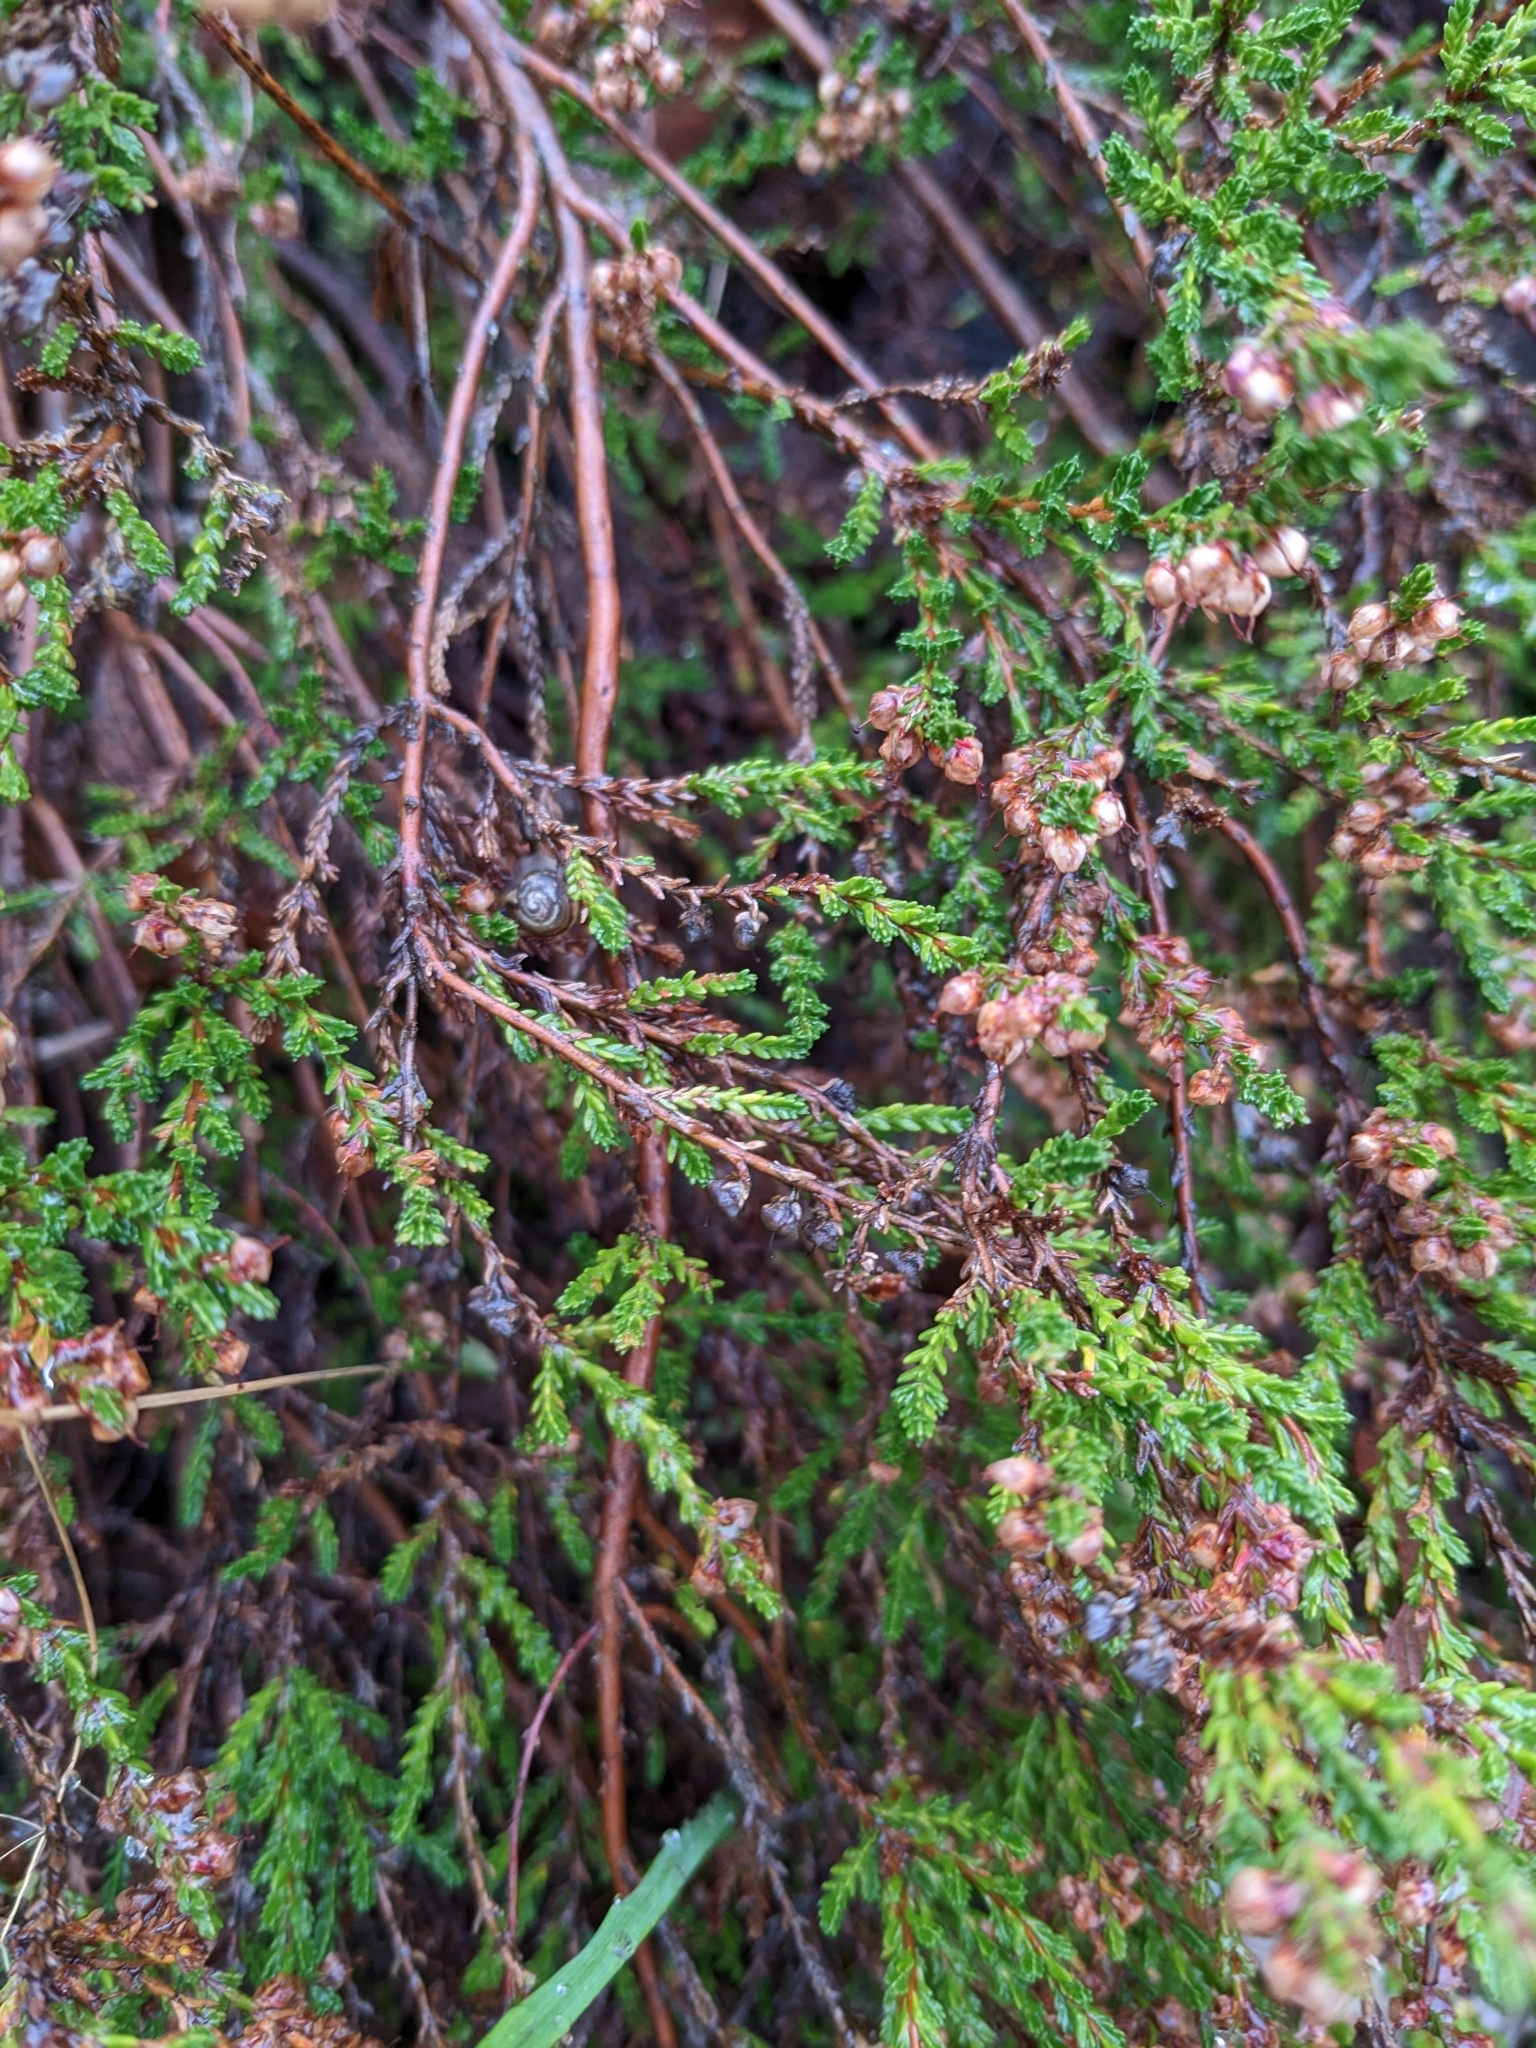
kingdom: Plantae
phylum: Tracheophyta
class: Magnoliopsida
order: Ericales
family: Ericaceae
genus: Calluna
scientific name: Calluna vulgaris
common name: Heather
